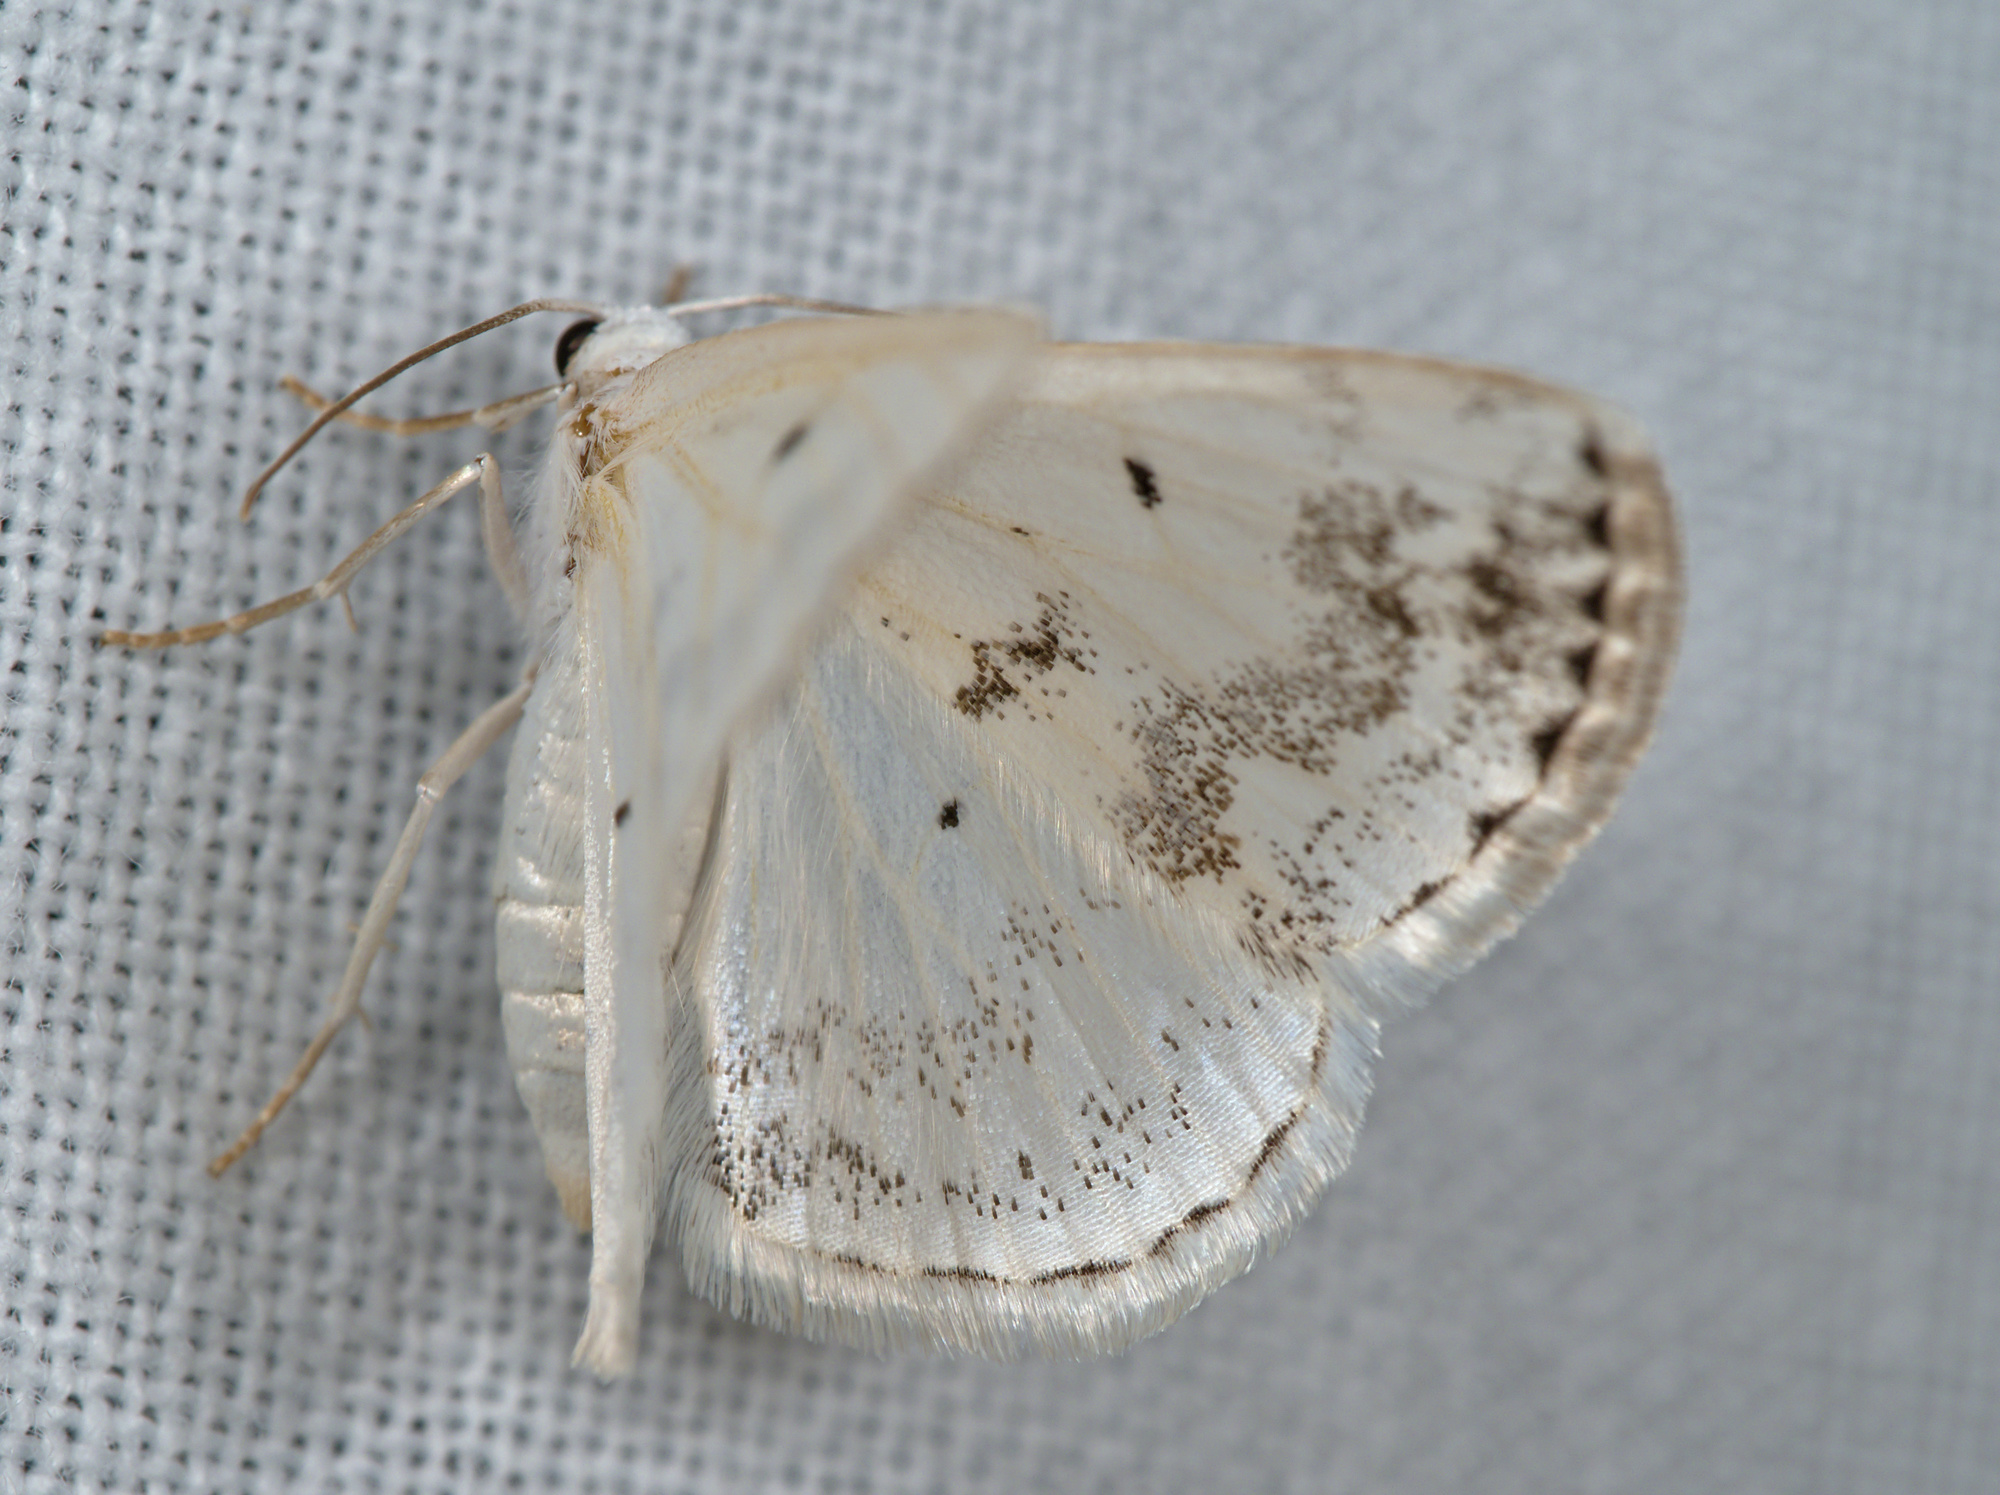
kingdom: Animalia
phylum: Arthropoda
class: Insecta
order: Lepidoptera
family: Geometridae
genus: Lomographa
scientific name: Lomographa temerata
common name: Clouded silver
